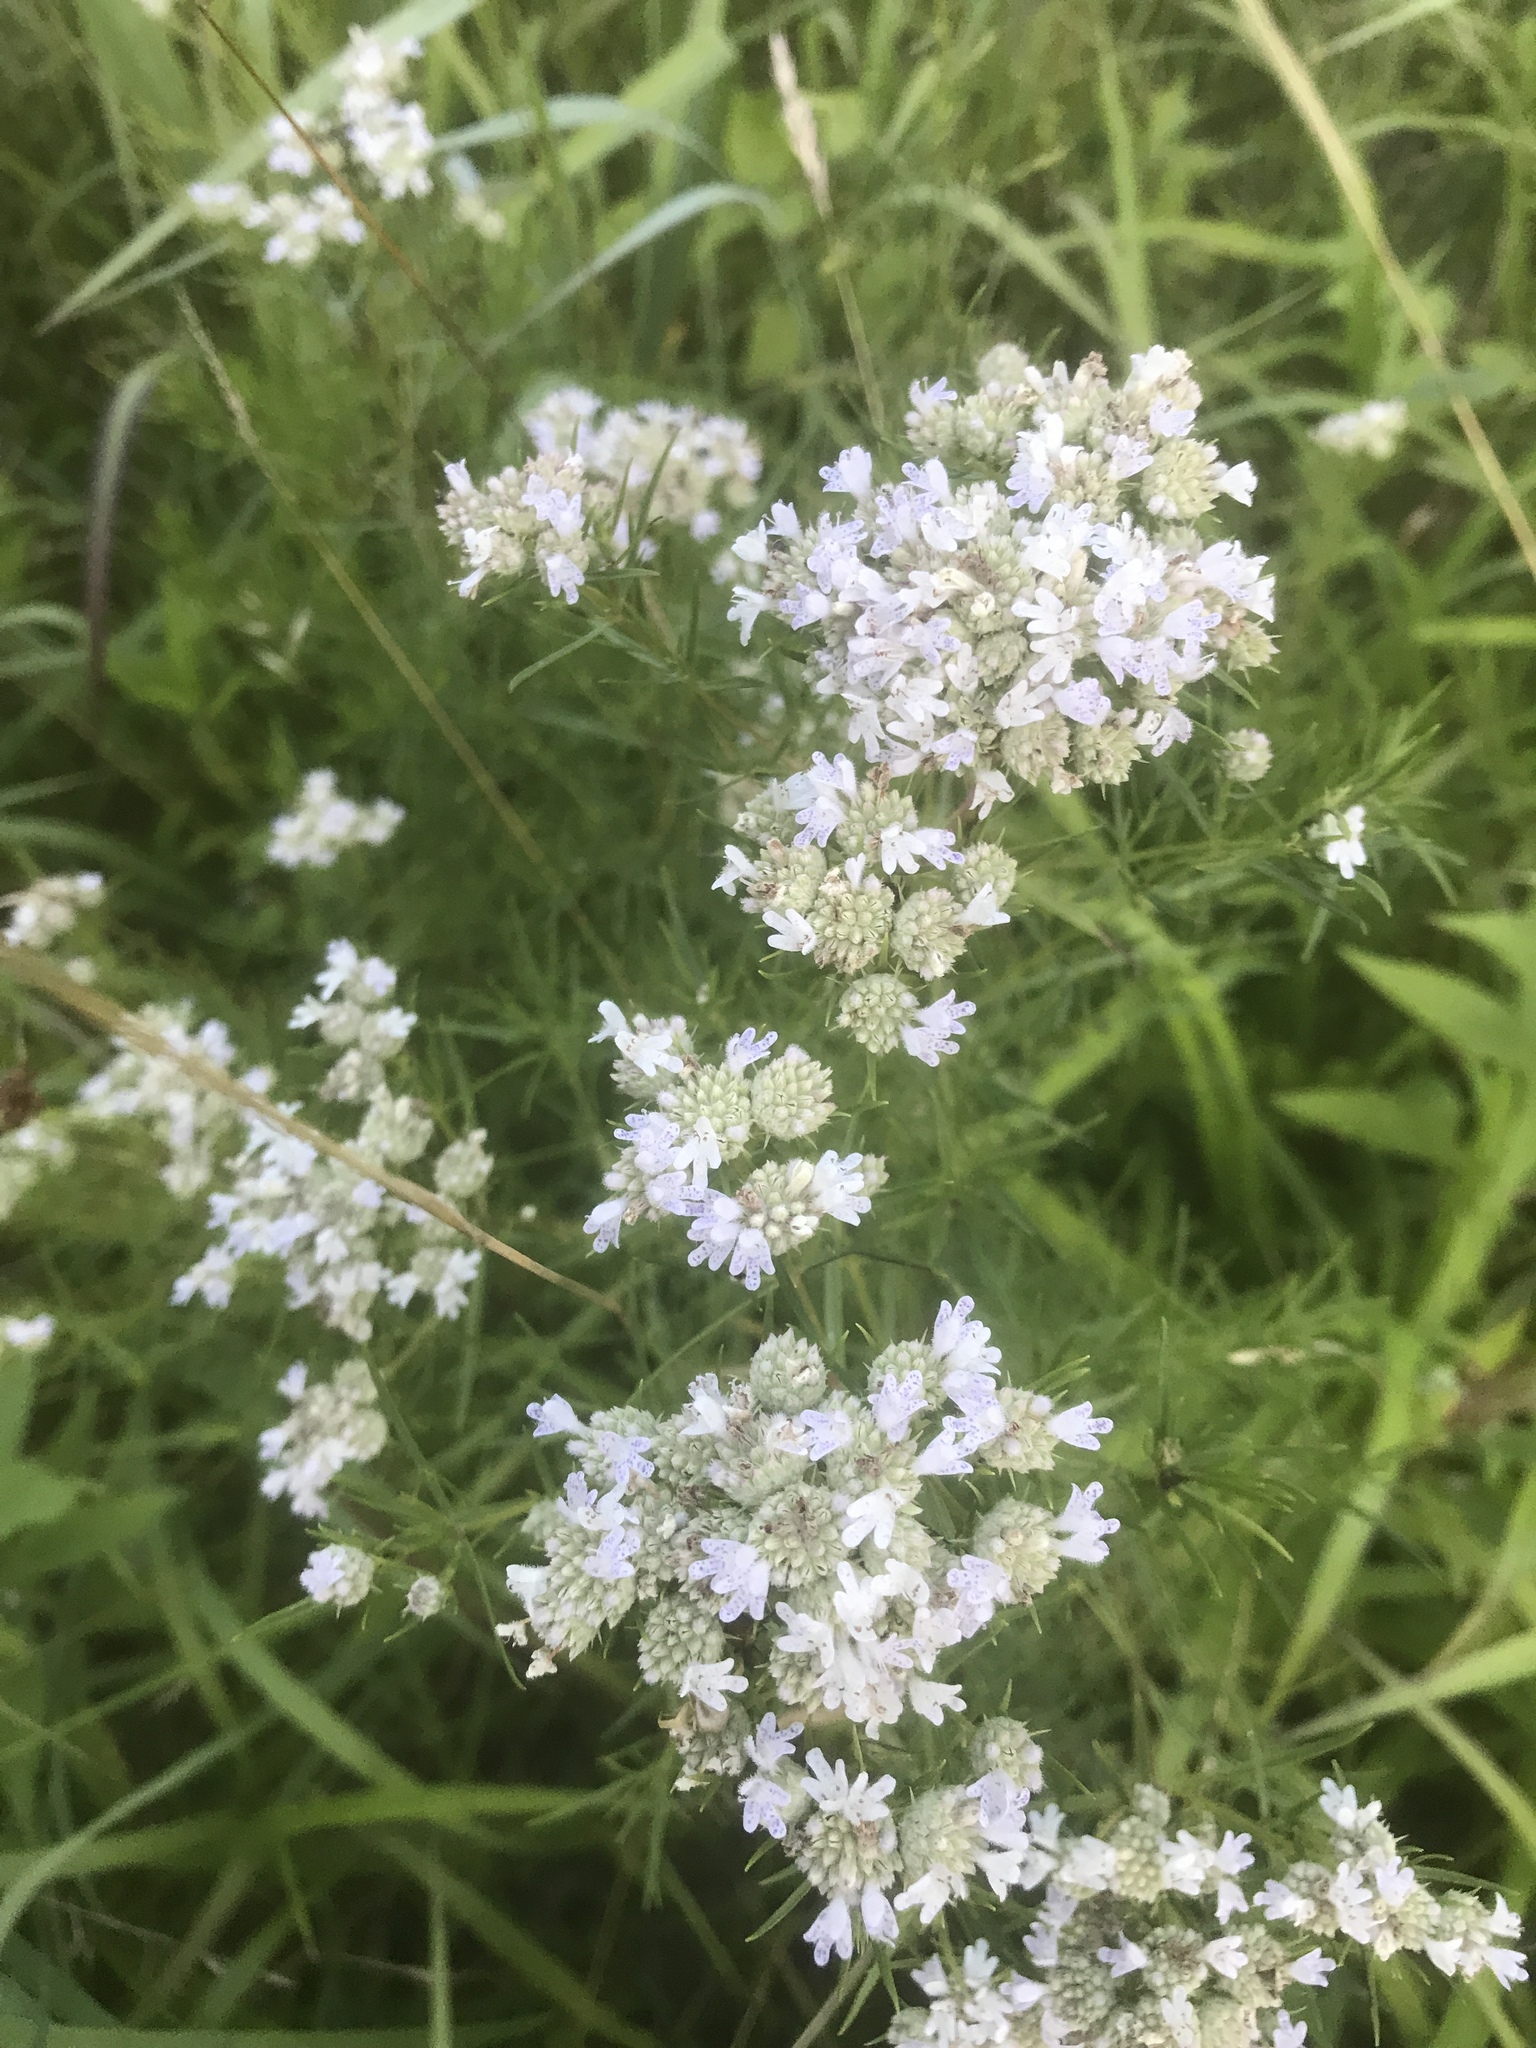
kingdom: Plantae
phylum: Tracheophyta
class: Magnoliopsida
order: Lamiales
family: Lamiaceae
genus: Pycnanthemum
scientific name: Pycnanthemum tenuifolium
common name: Narrow-leaf mountain-mint
